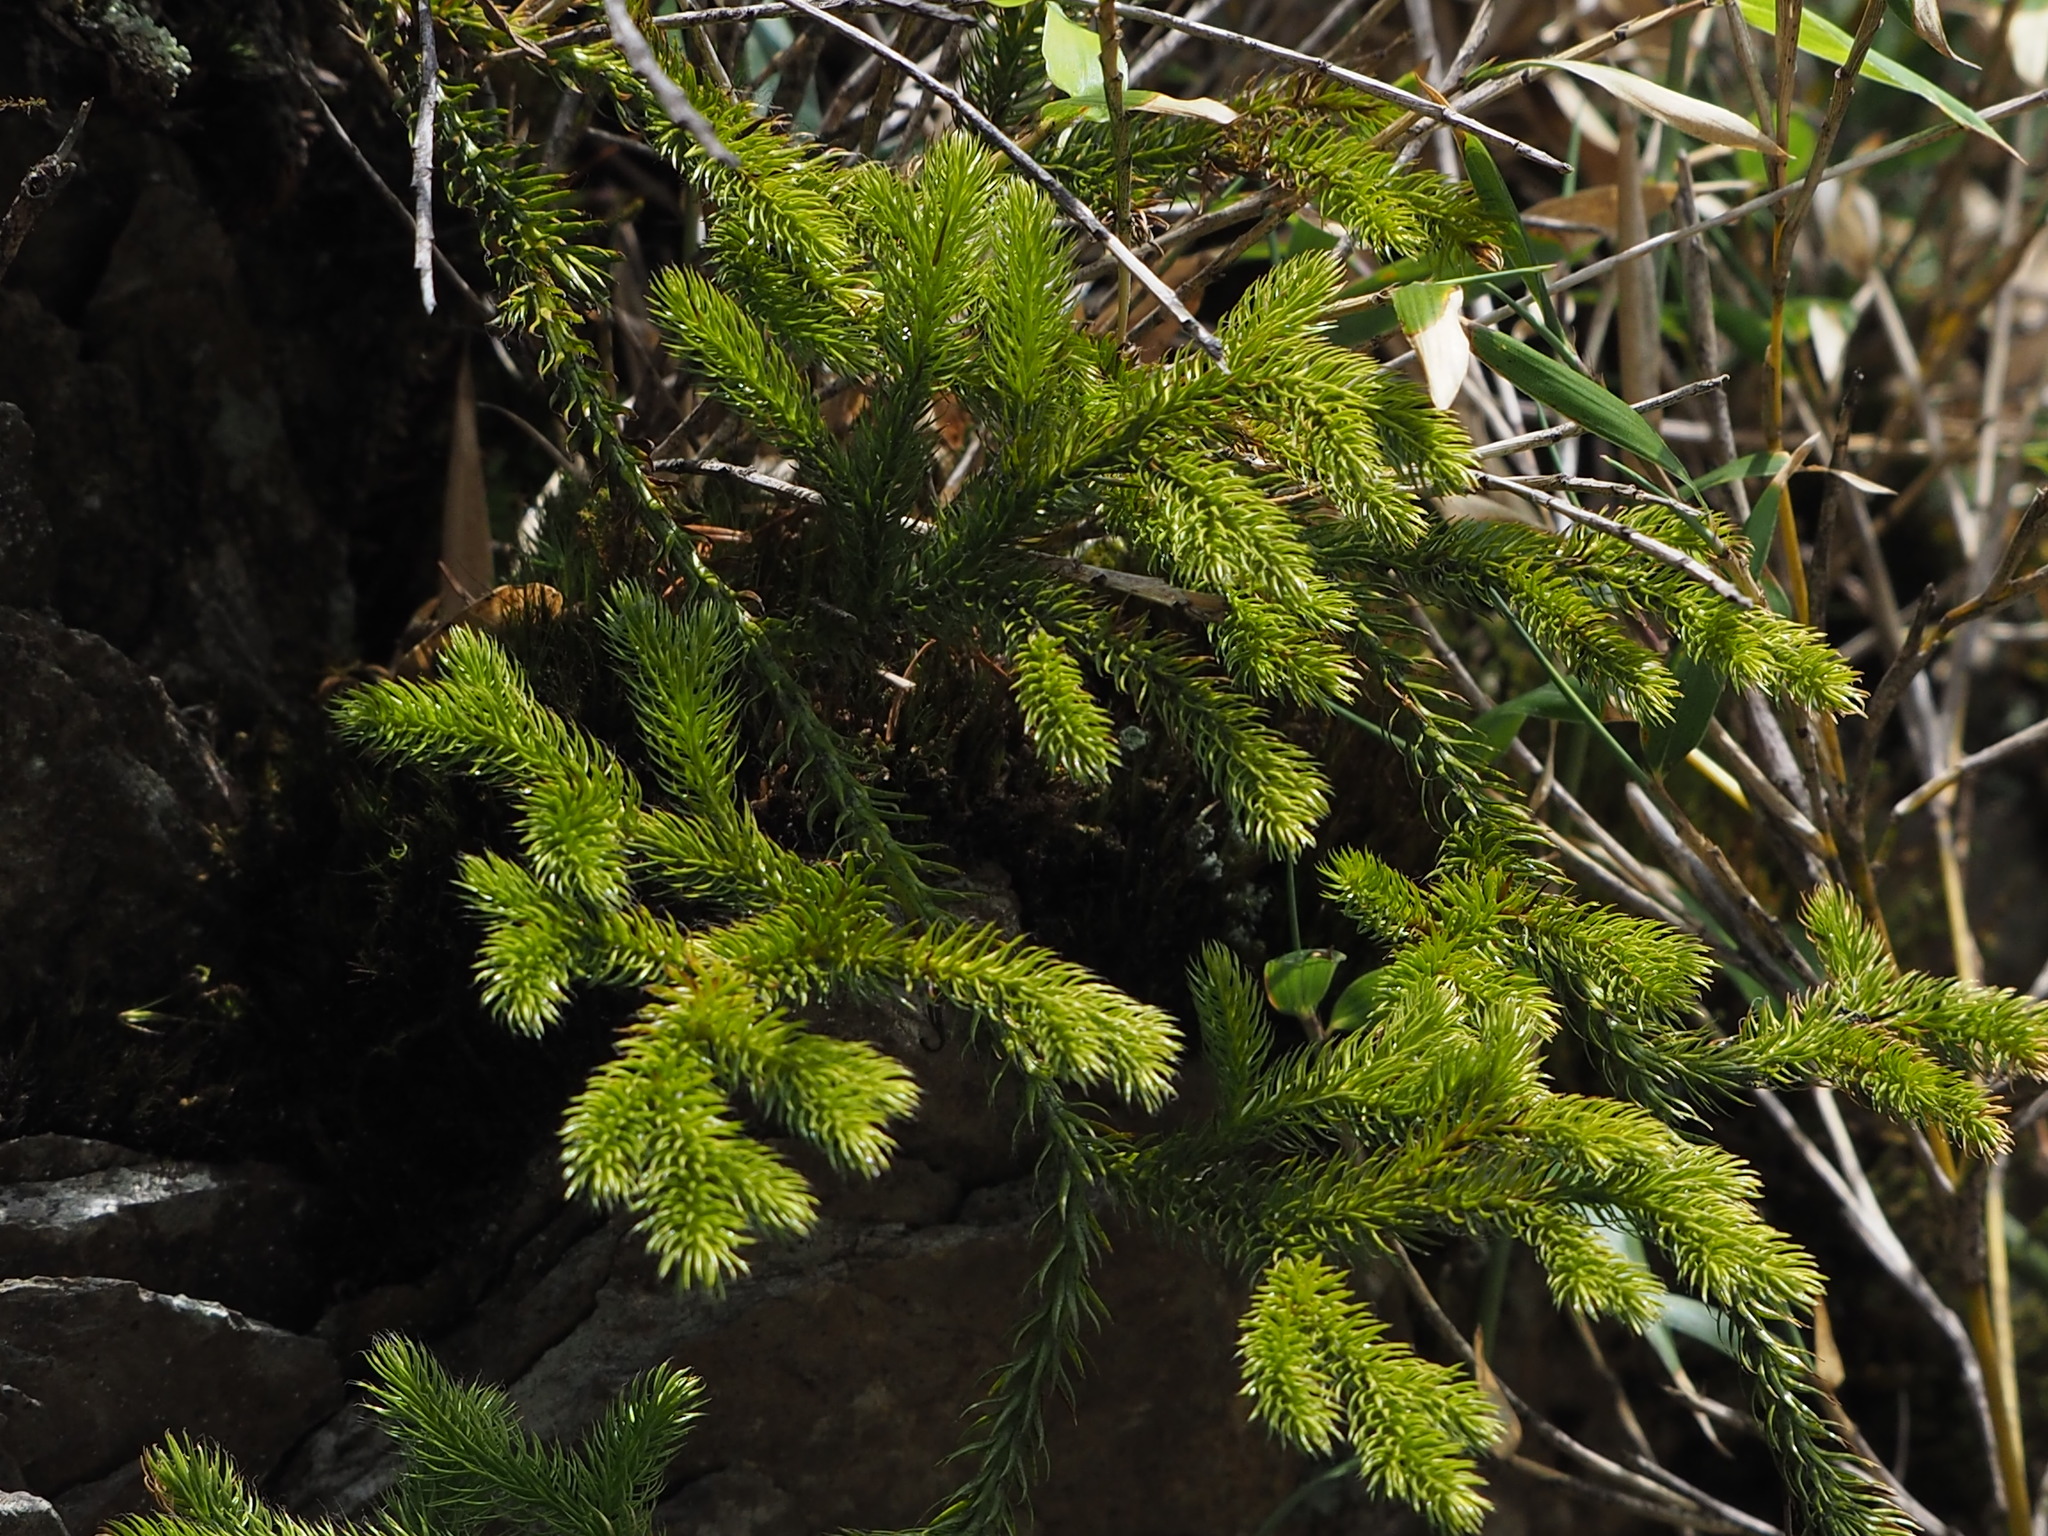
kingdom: Plantae
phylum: Tracheophyta
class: Lycopodiopsida
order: Lycopodiales
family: Lycopodiaceae
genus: Lycopodium
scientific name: Lycopodium clavatum
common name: Stag's-horn clubmoss
